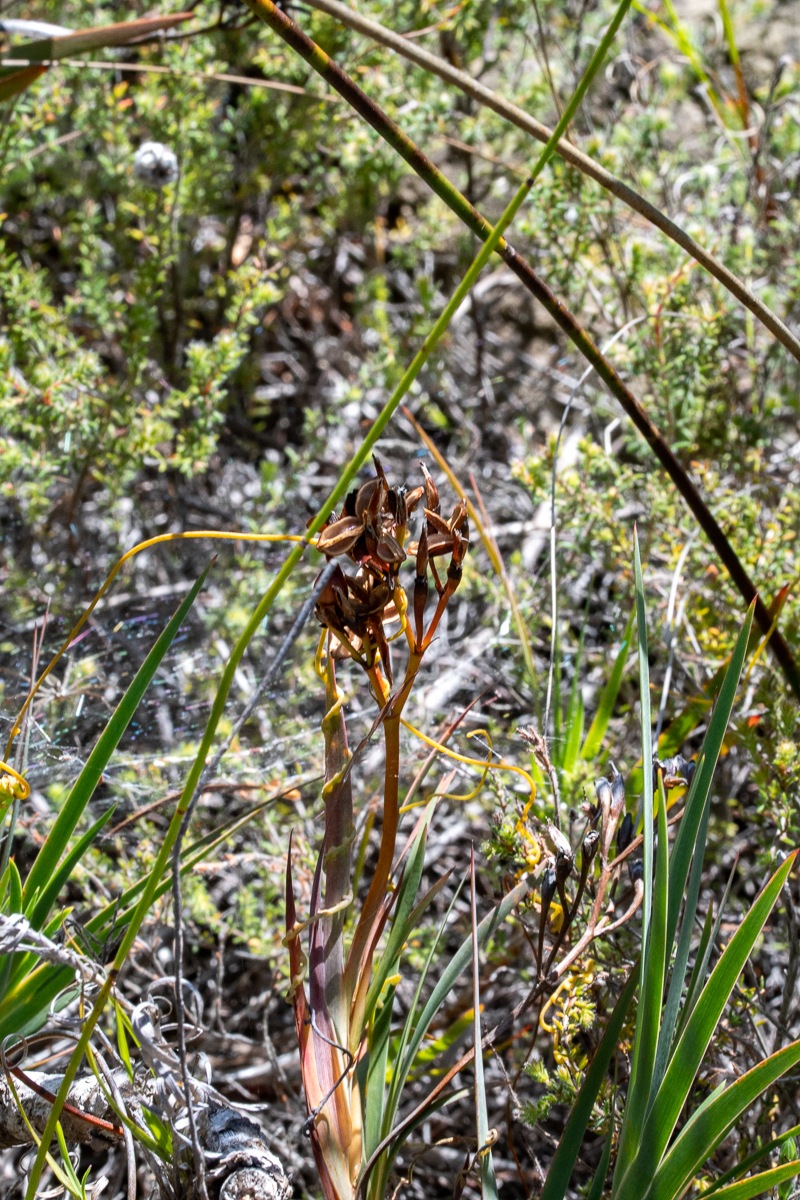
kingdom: Plantae
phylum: Tracheophyta
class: Liliopsida
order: Asparagales
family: Iridaceae
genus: Nivenia
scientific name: Nivenia stokoei
